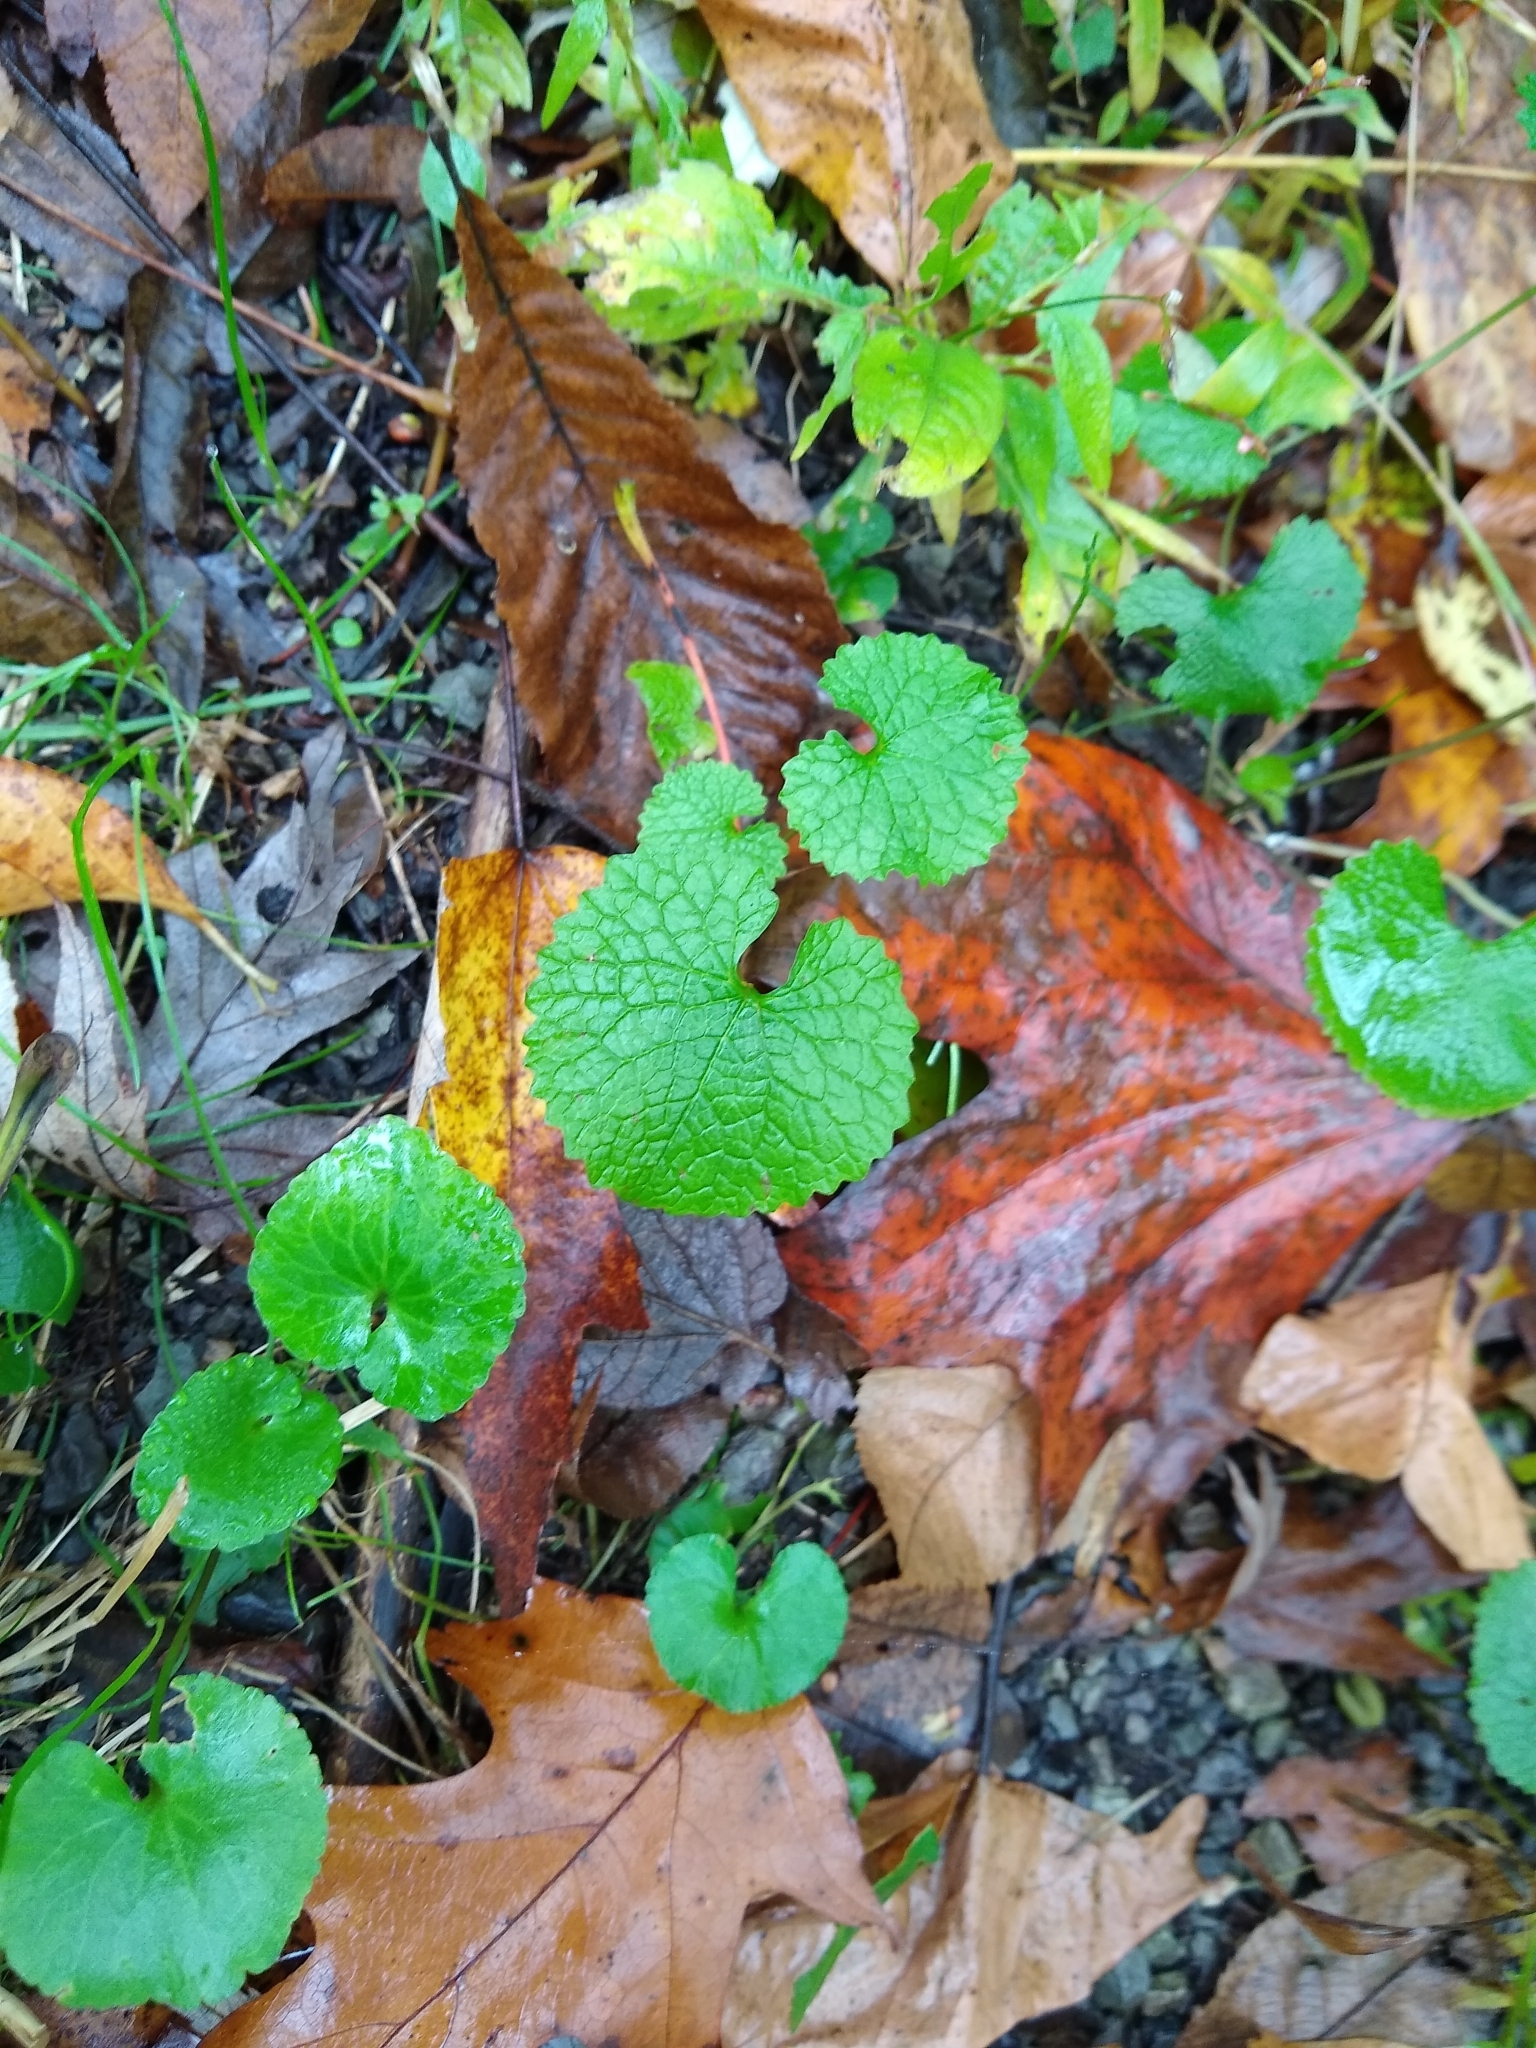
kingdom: Plantae
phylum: Tracheophyta
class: Magnoliopsida
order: Brassicales
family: Brassicaceae
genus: Alliaria
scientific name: Alliaria petiolata
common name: Garlic mustard
